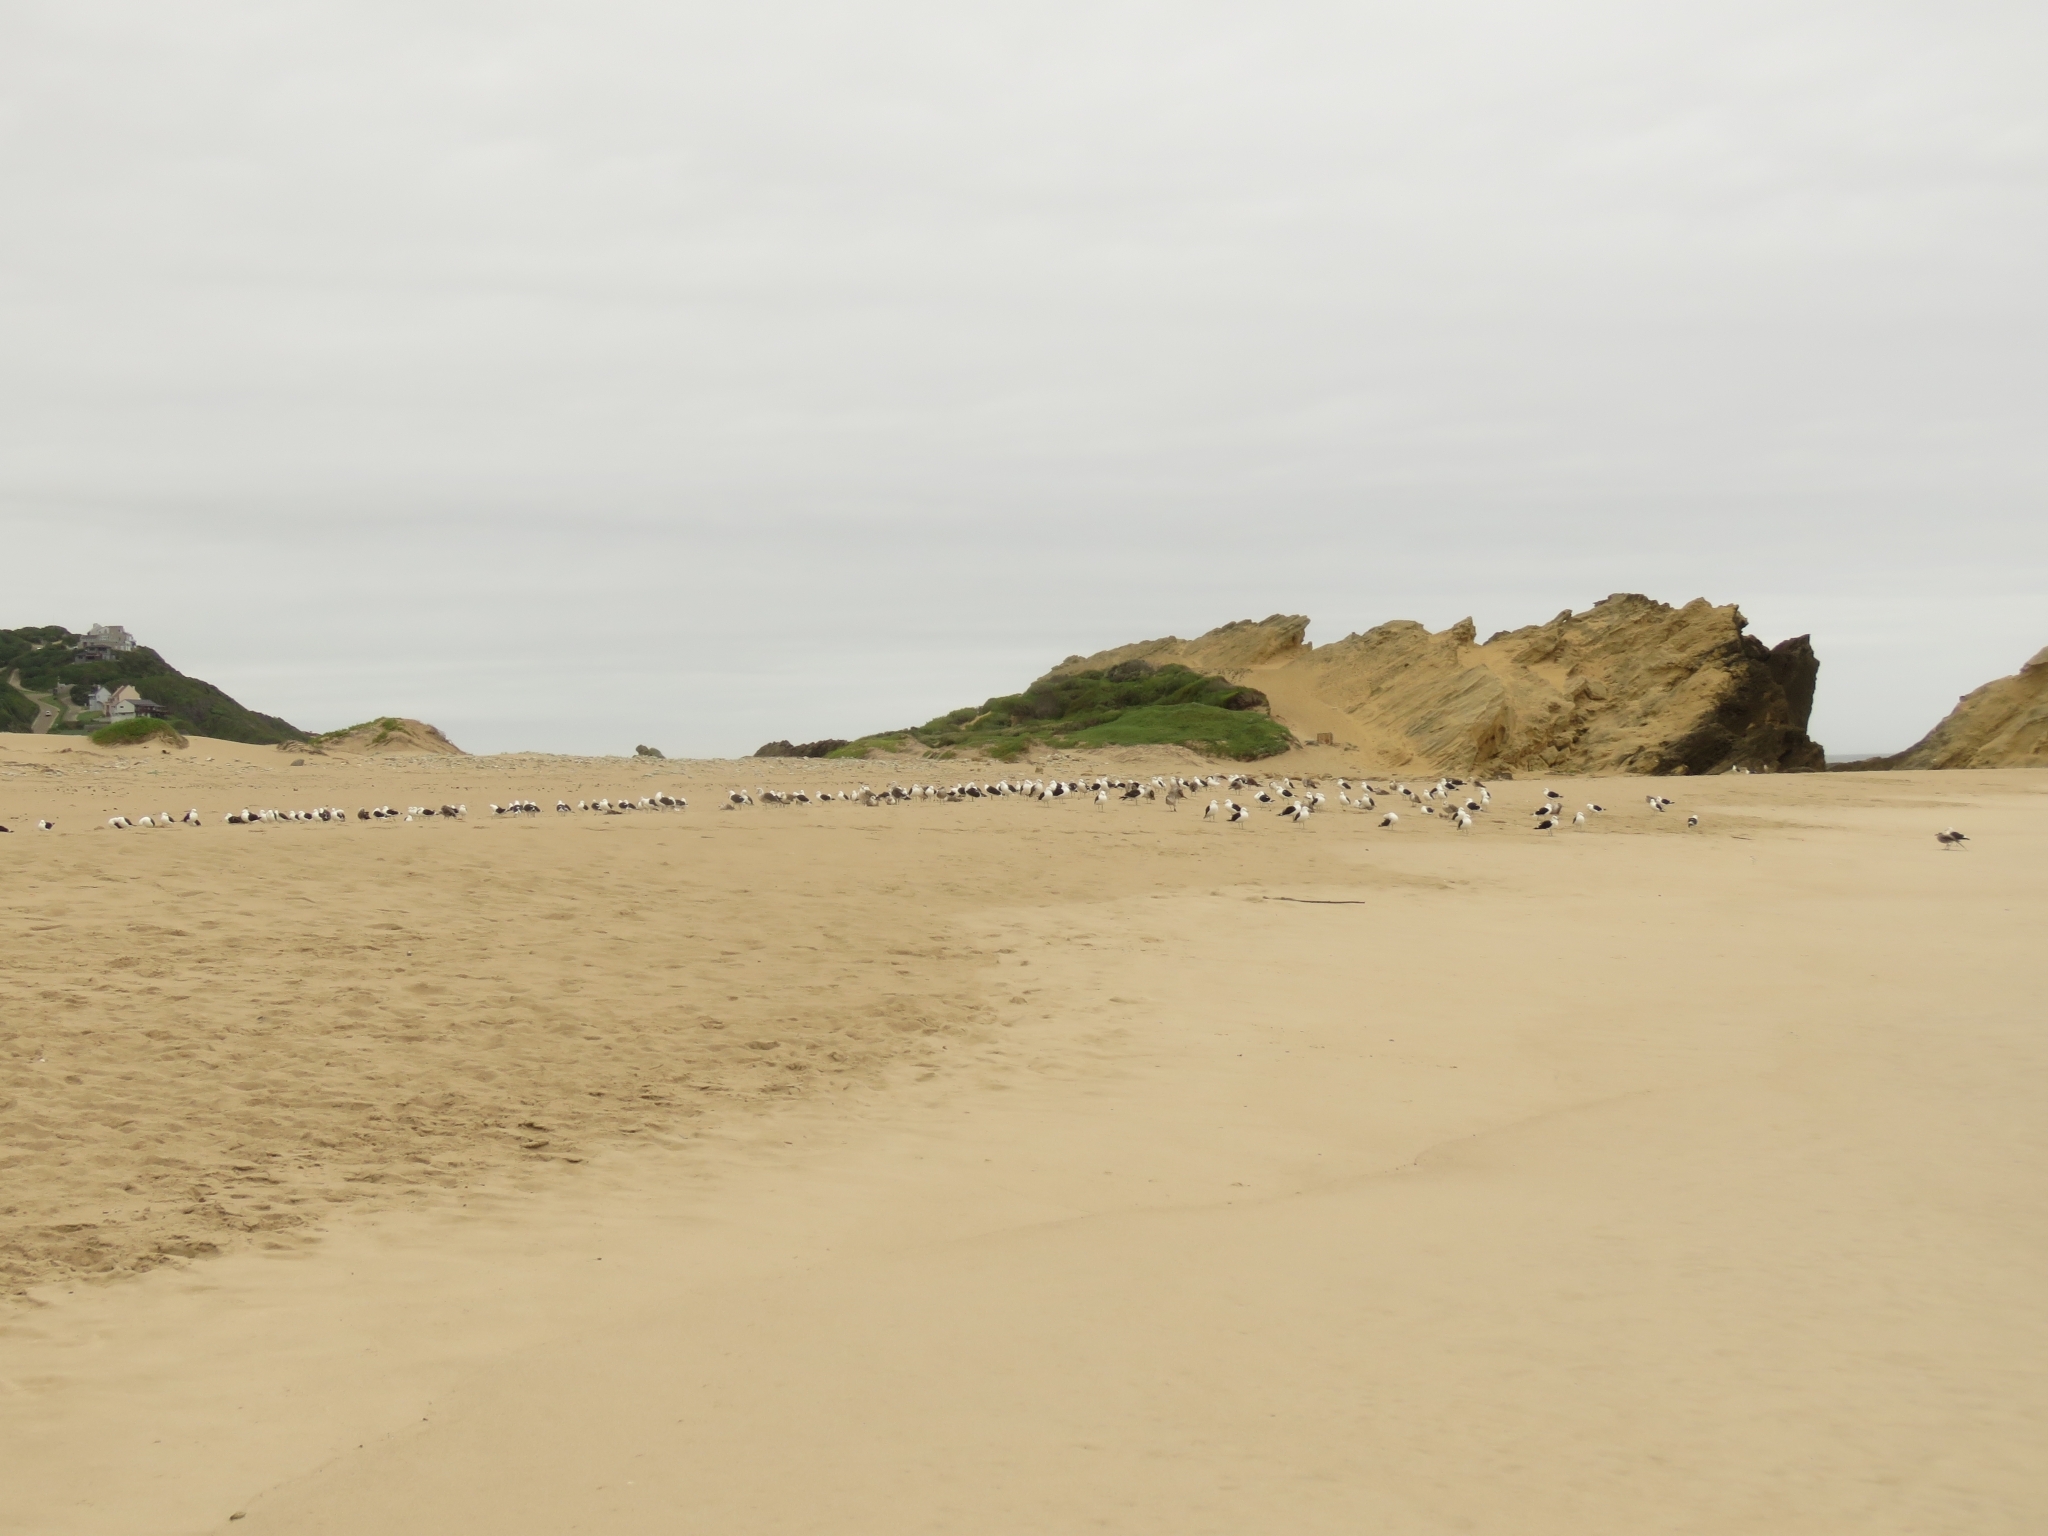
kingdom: Animalia
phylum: Chordata
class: Aves
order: Charadriiformes
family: Laridae
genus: Larus
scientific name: Larus dominicanus
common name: Kelp gull
